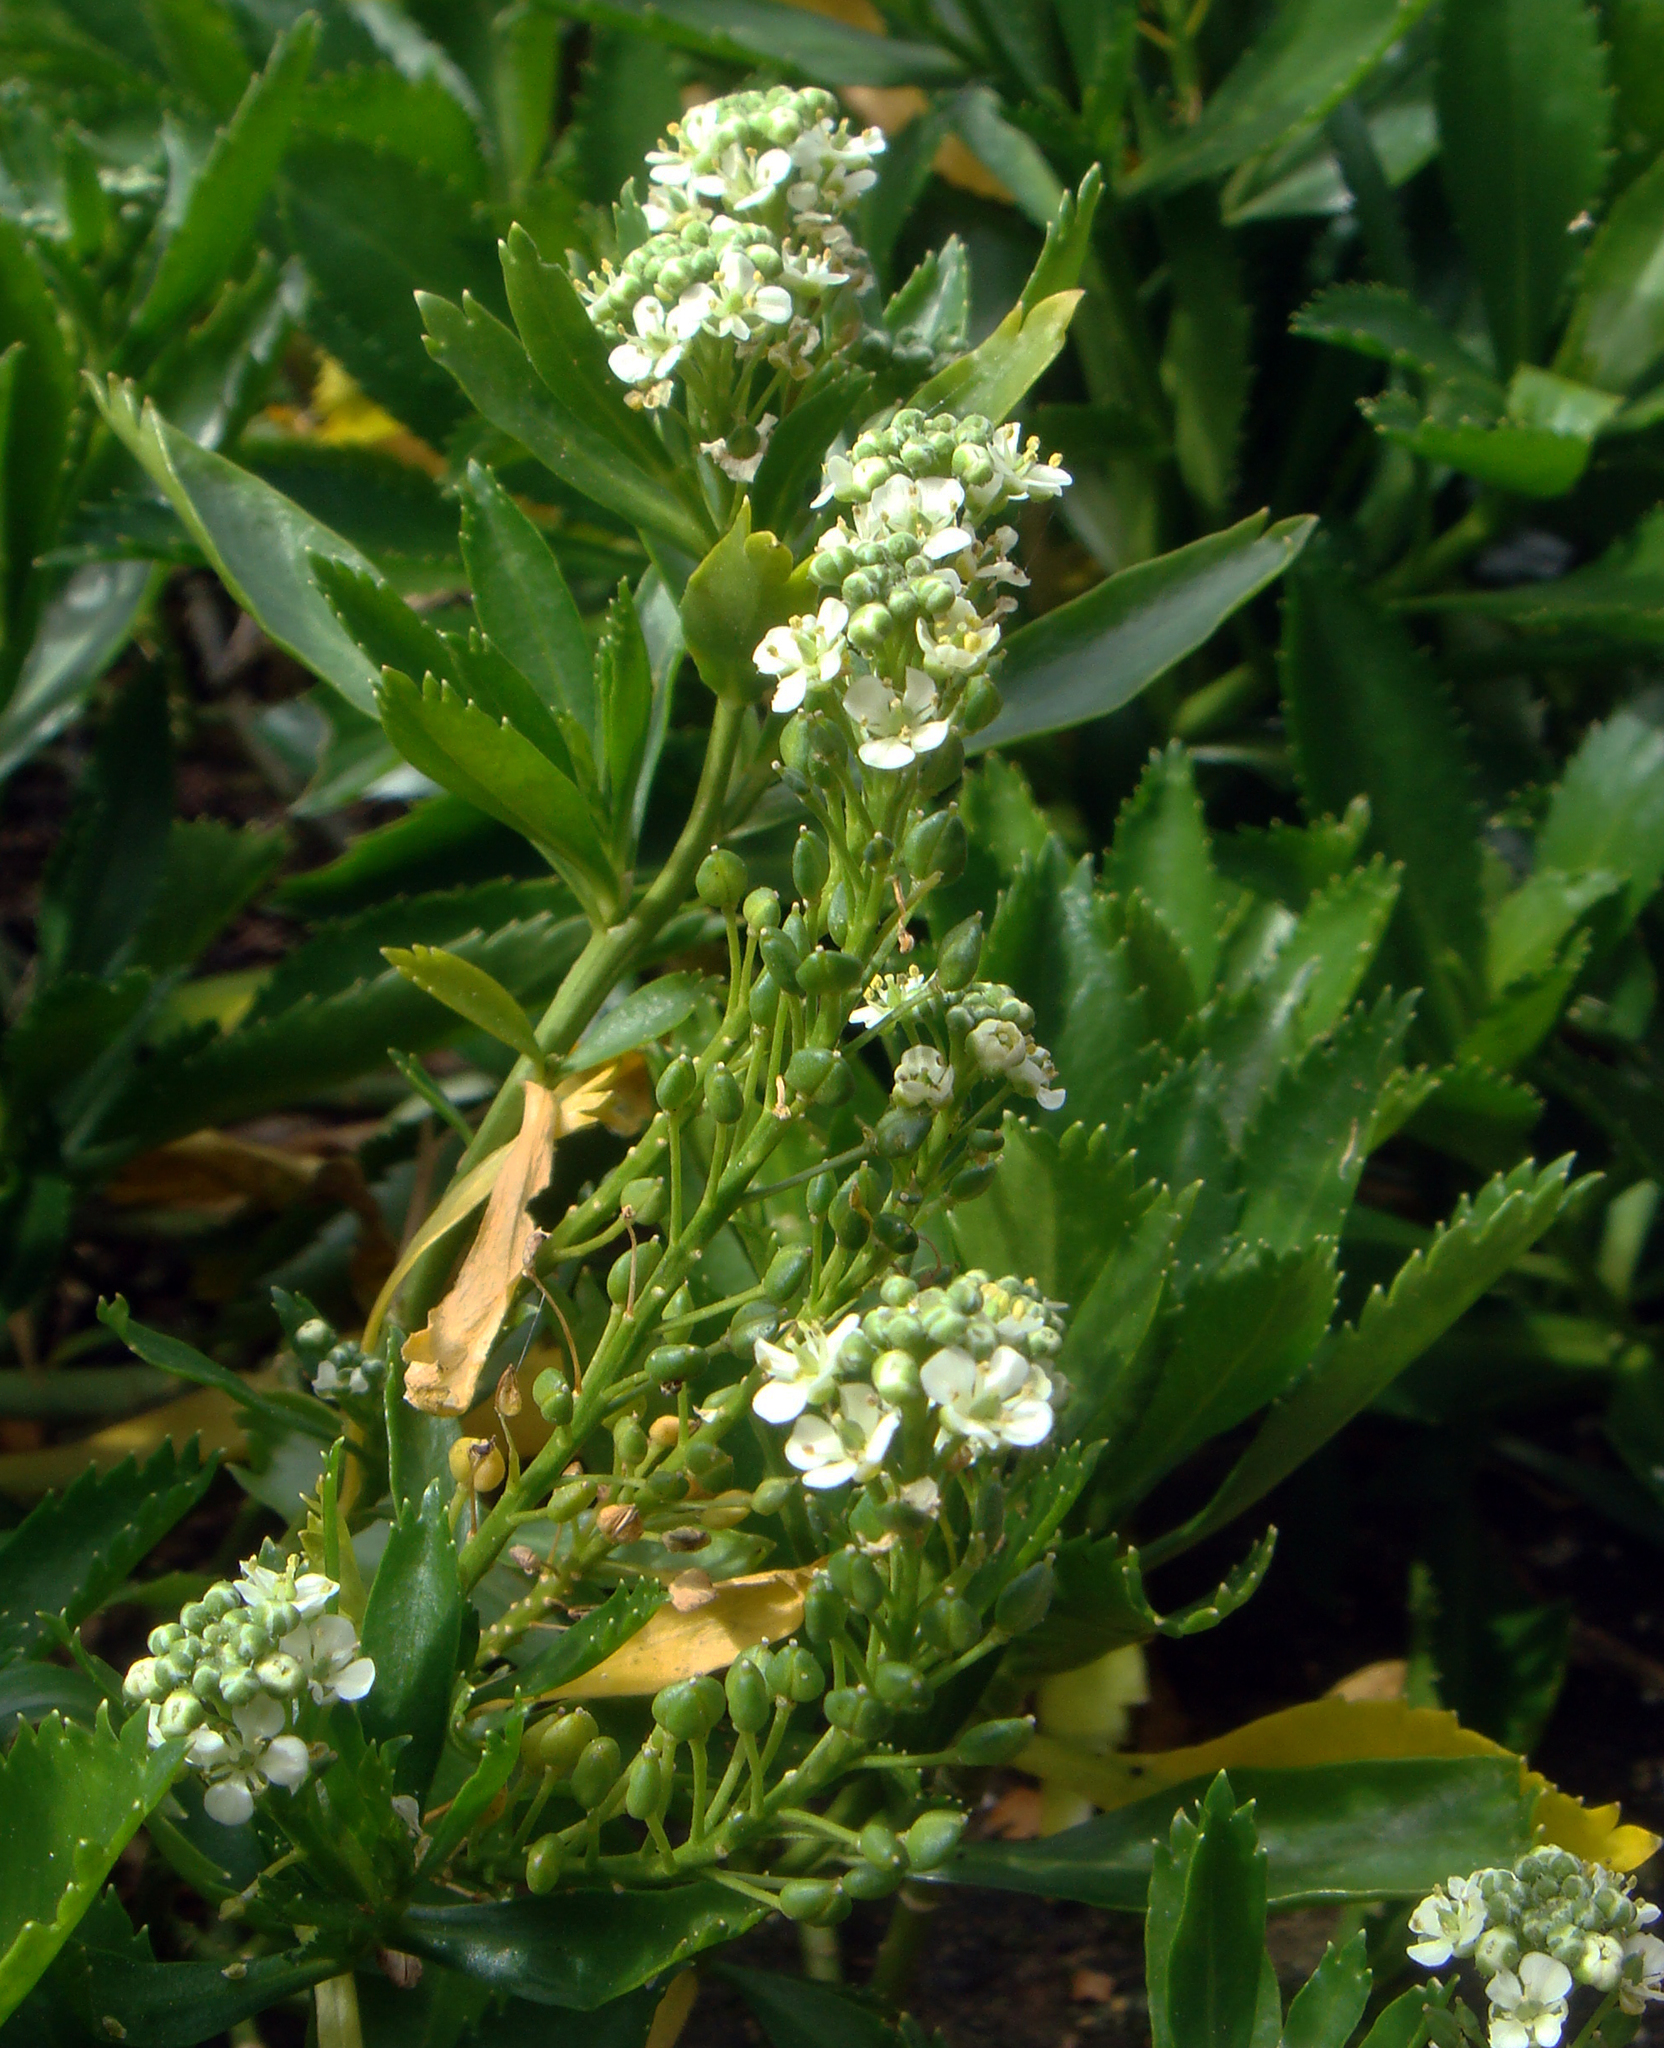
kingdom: Plantae
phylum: Tracheophyta
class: Magnoliopsida
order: Brassicales
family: Brassicaceae
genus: Lepidium
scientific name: Lepidium oleraceum
